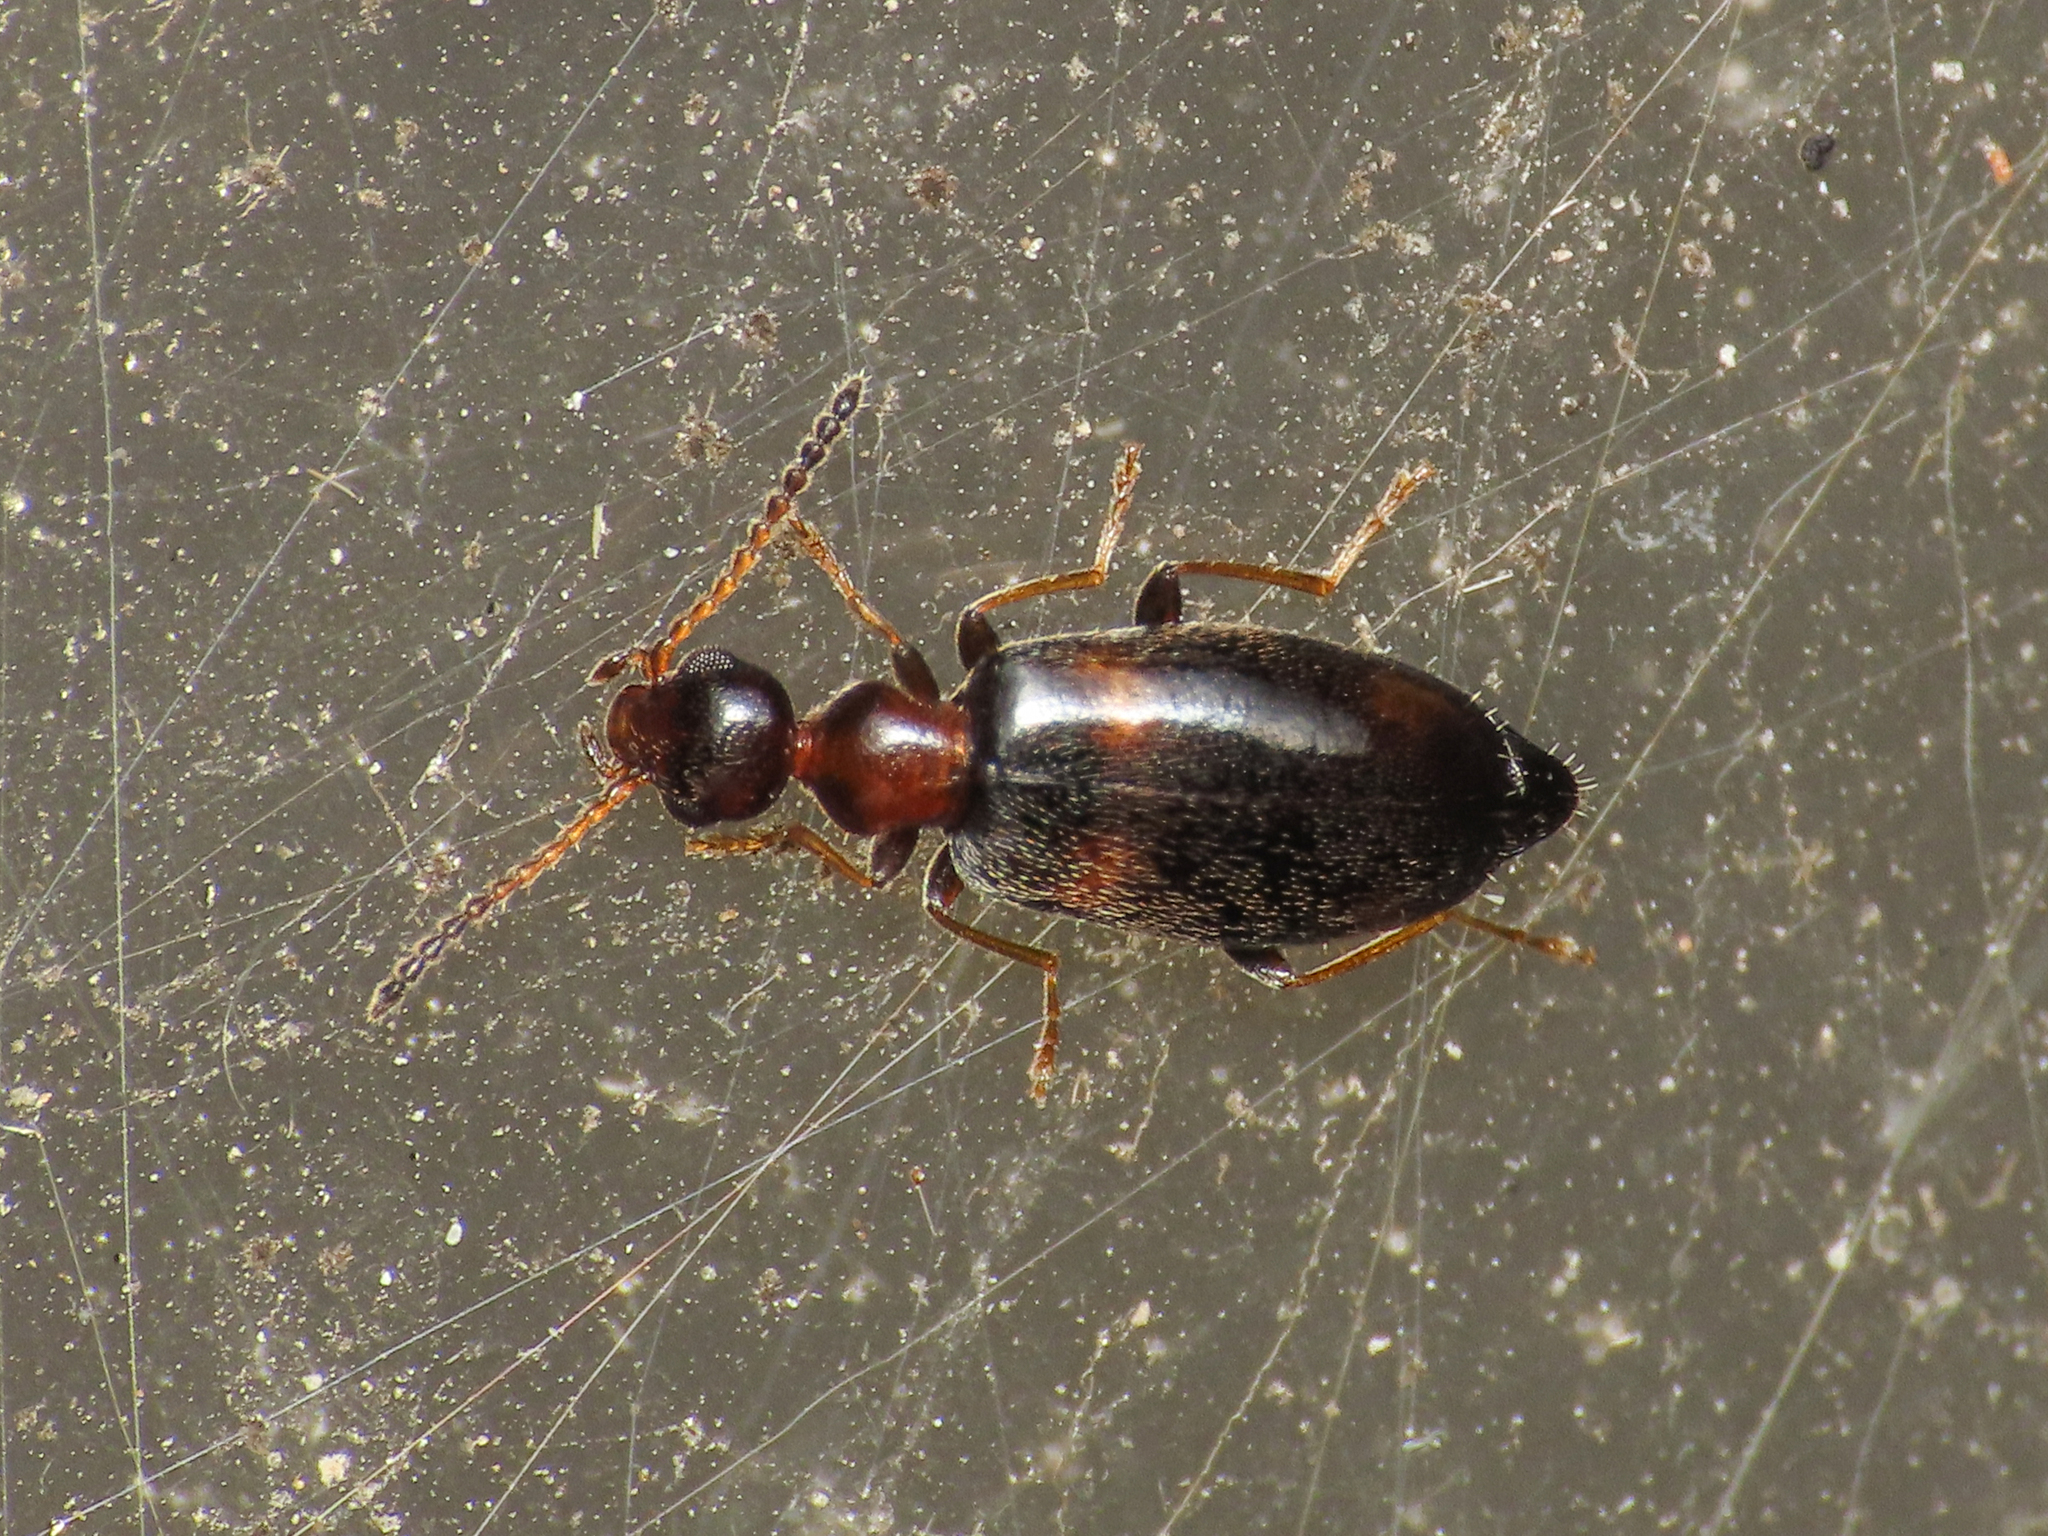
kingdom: Animalia
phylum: Arthropoda
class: Insecta
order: Coleoptera
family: Anthicidae
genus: Microhoria
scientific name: Microhoria terminata
